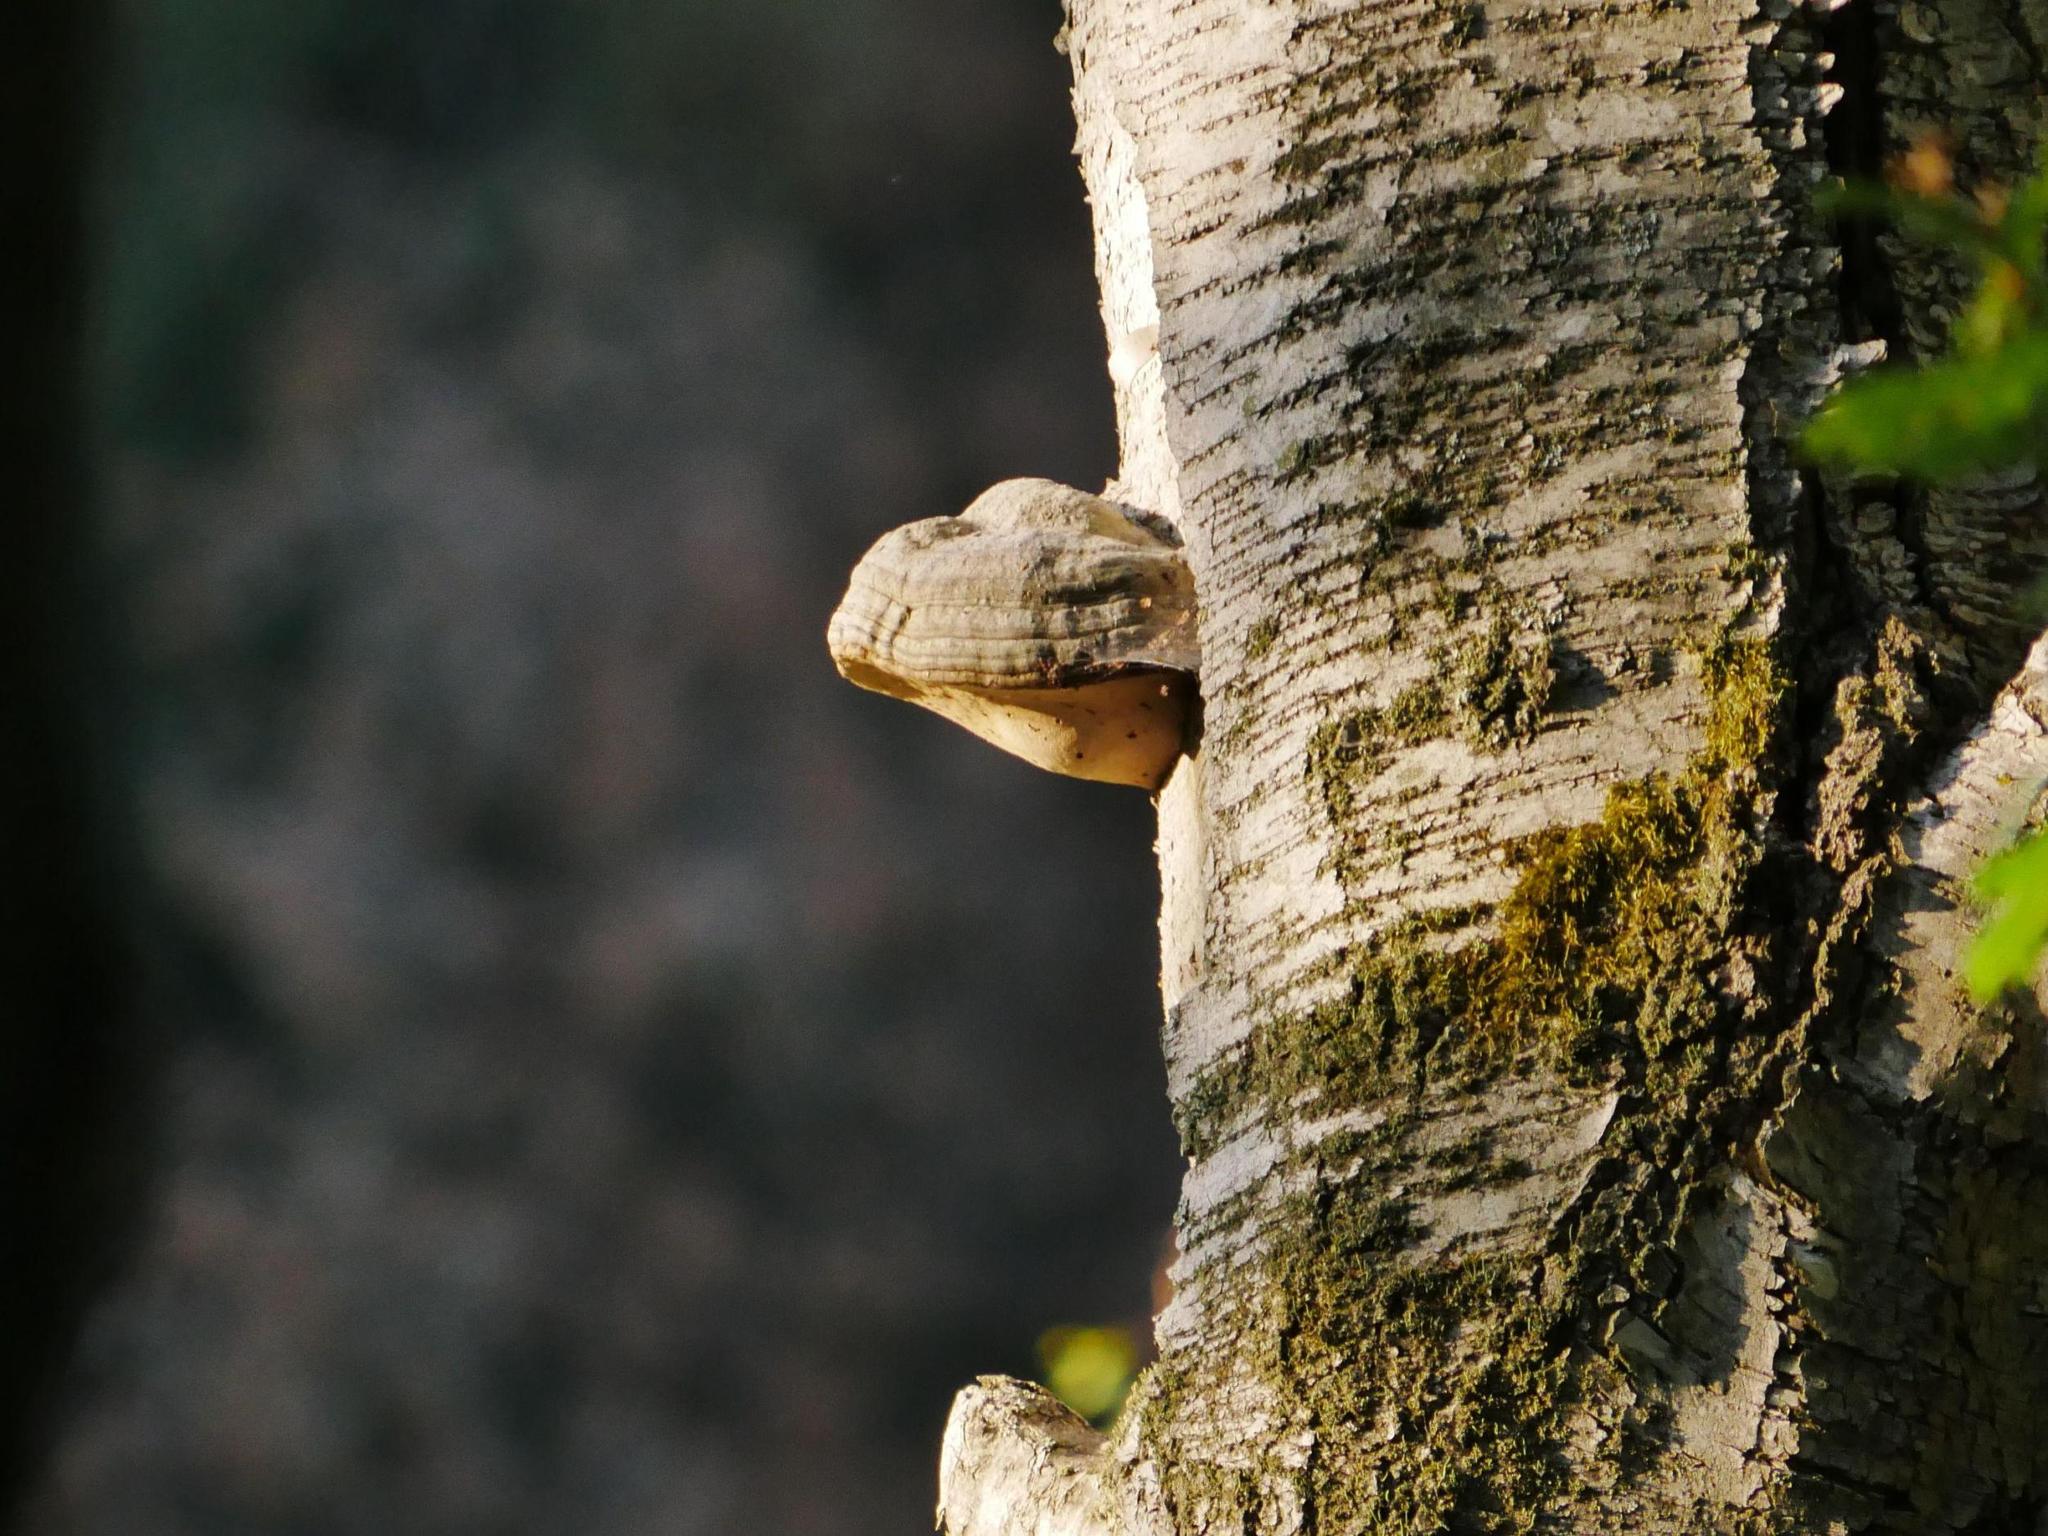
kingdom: Fungi
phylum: Basidiomycota
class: Agaricomycetes
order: Polyporales
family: Polyporaceae
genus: Fomes
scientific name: Fomes fomentarius
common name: Hoof fungus
